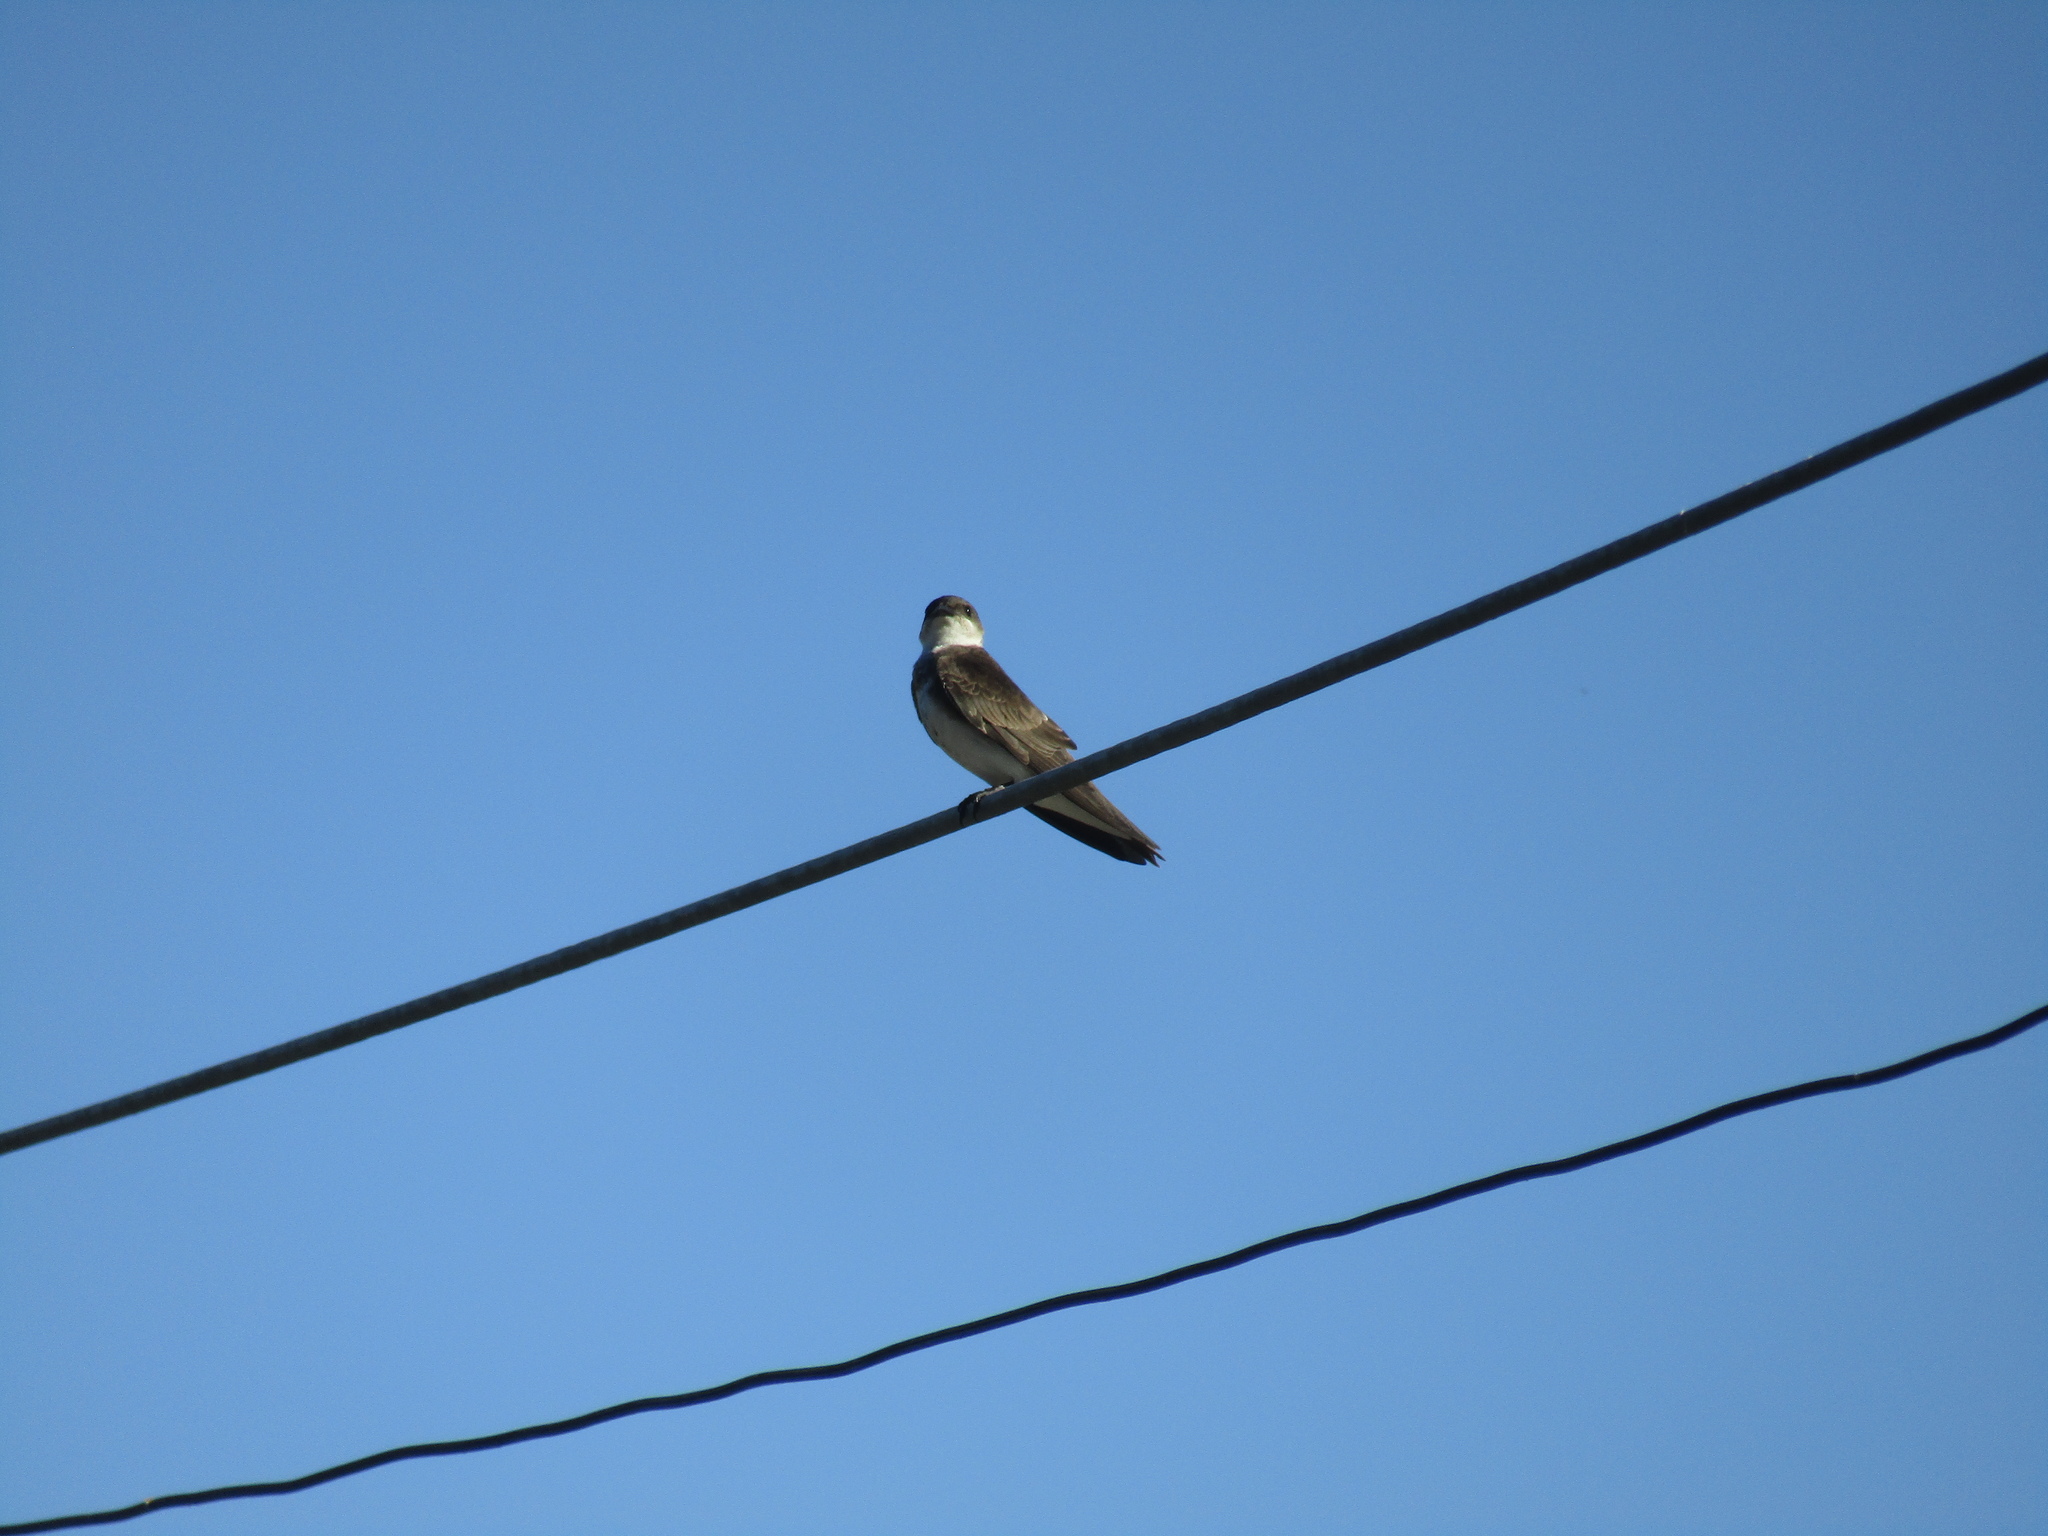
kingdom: Animalia
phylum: Chordata
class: Aves
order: Passeriformes
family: Hirundinidae
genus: Progne
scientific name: Progne tapera
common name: Brown-chested martin
